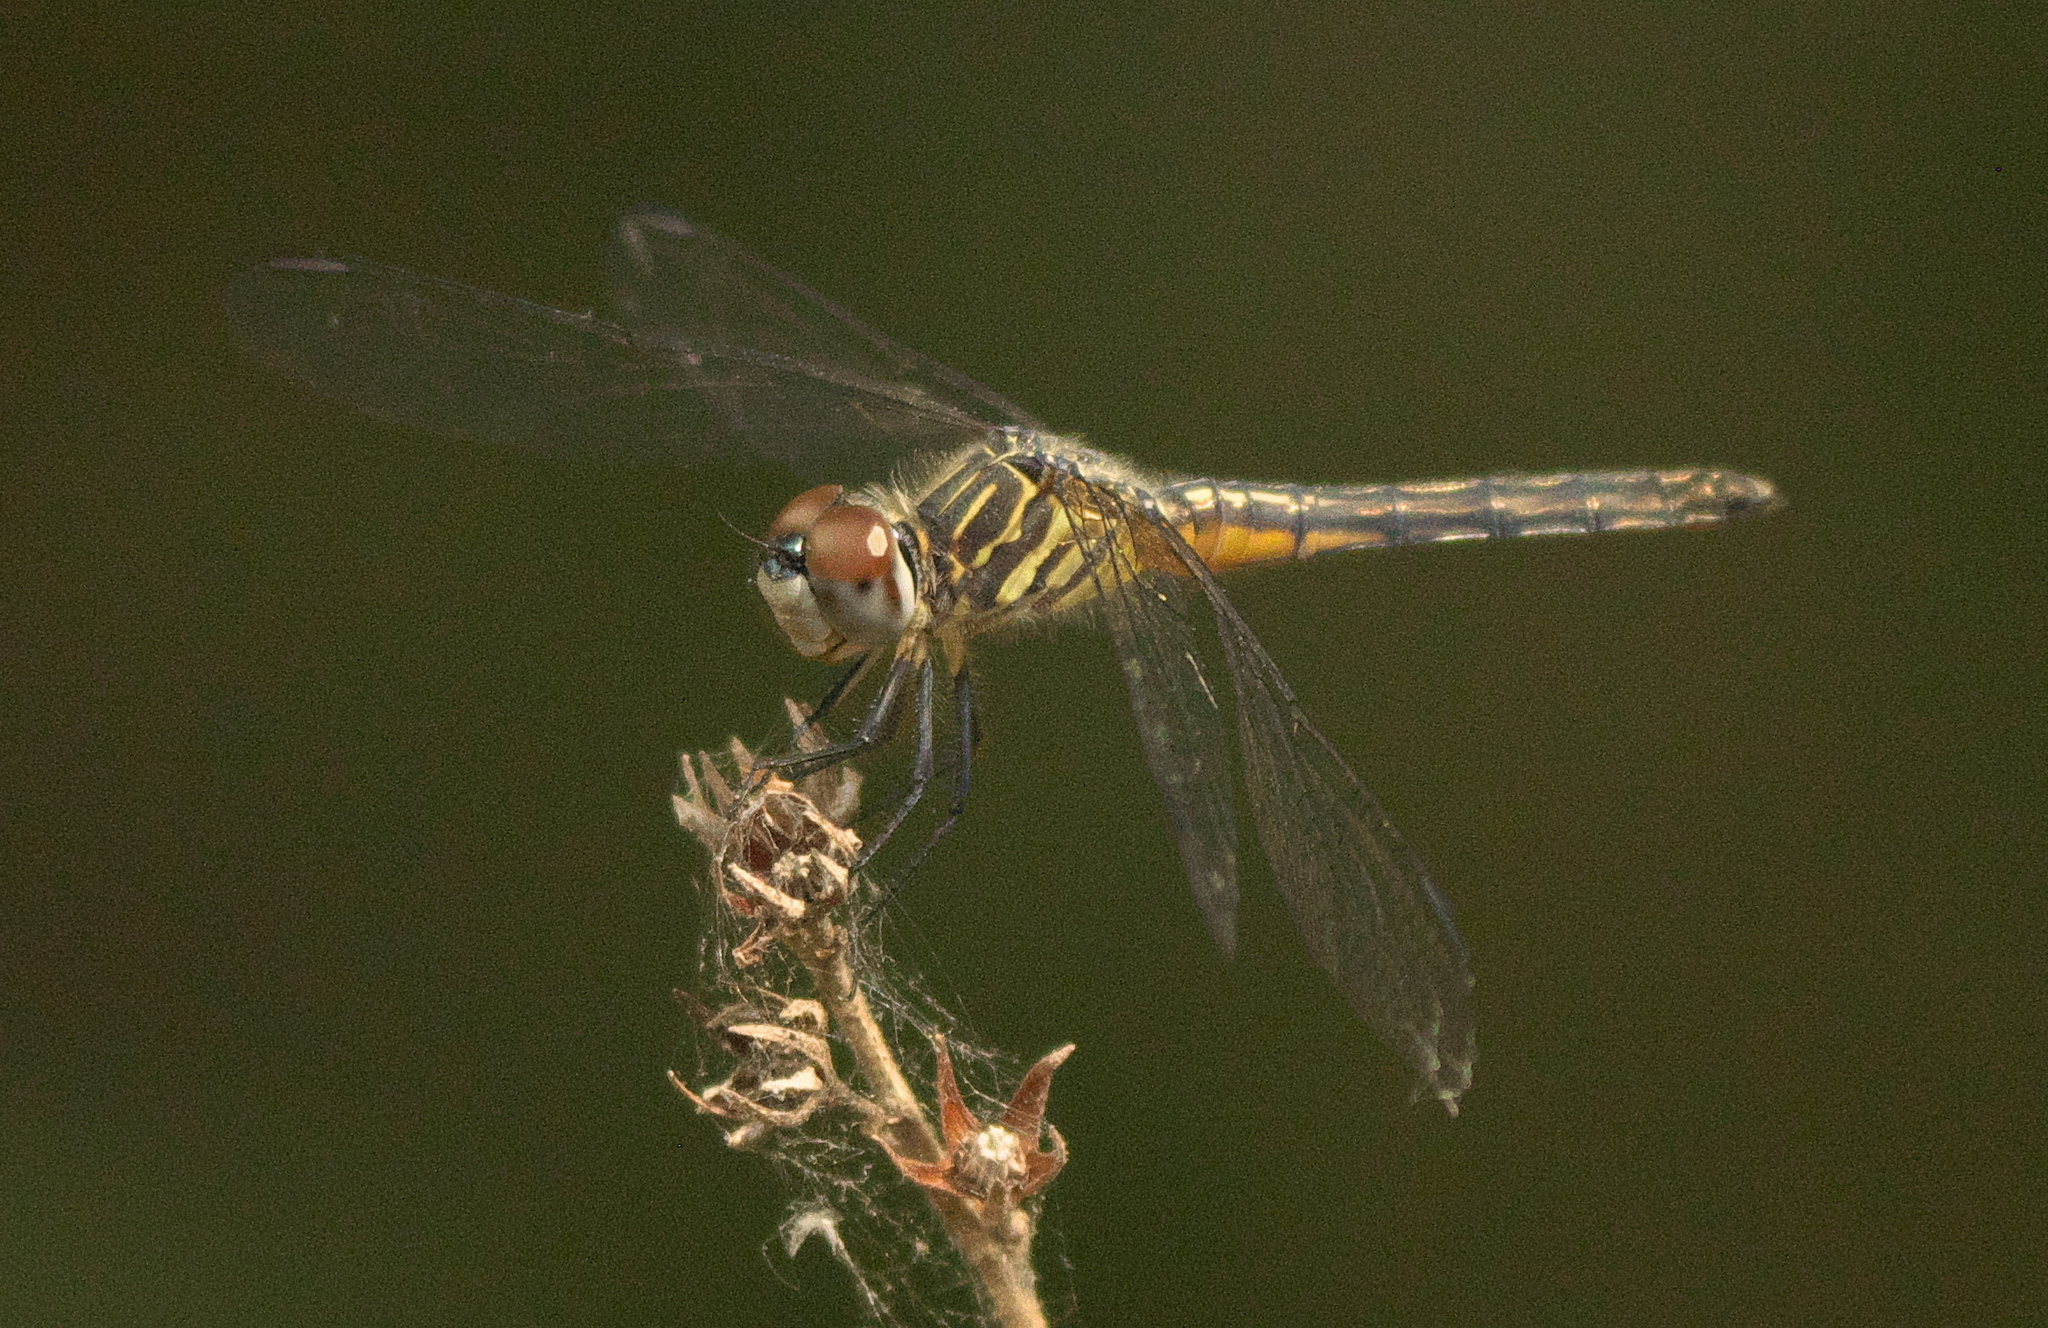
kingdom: Animalia
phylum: Arthropoda
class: Insecta
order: Odonata
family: Libellulidae
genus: Pachydiplax
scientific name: Pachydiplax longipennis
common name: Blue dasher
